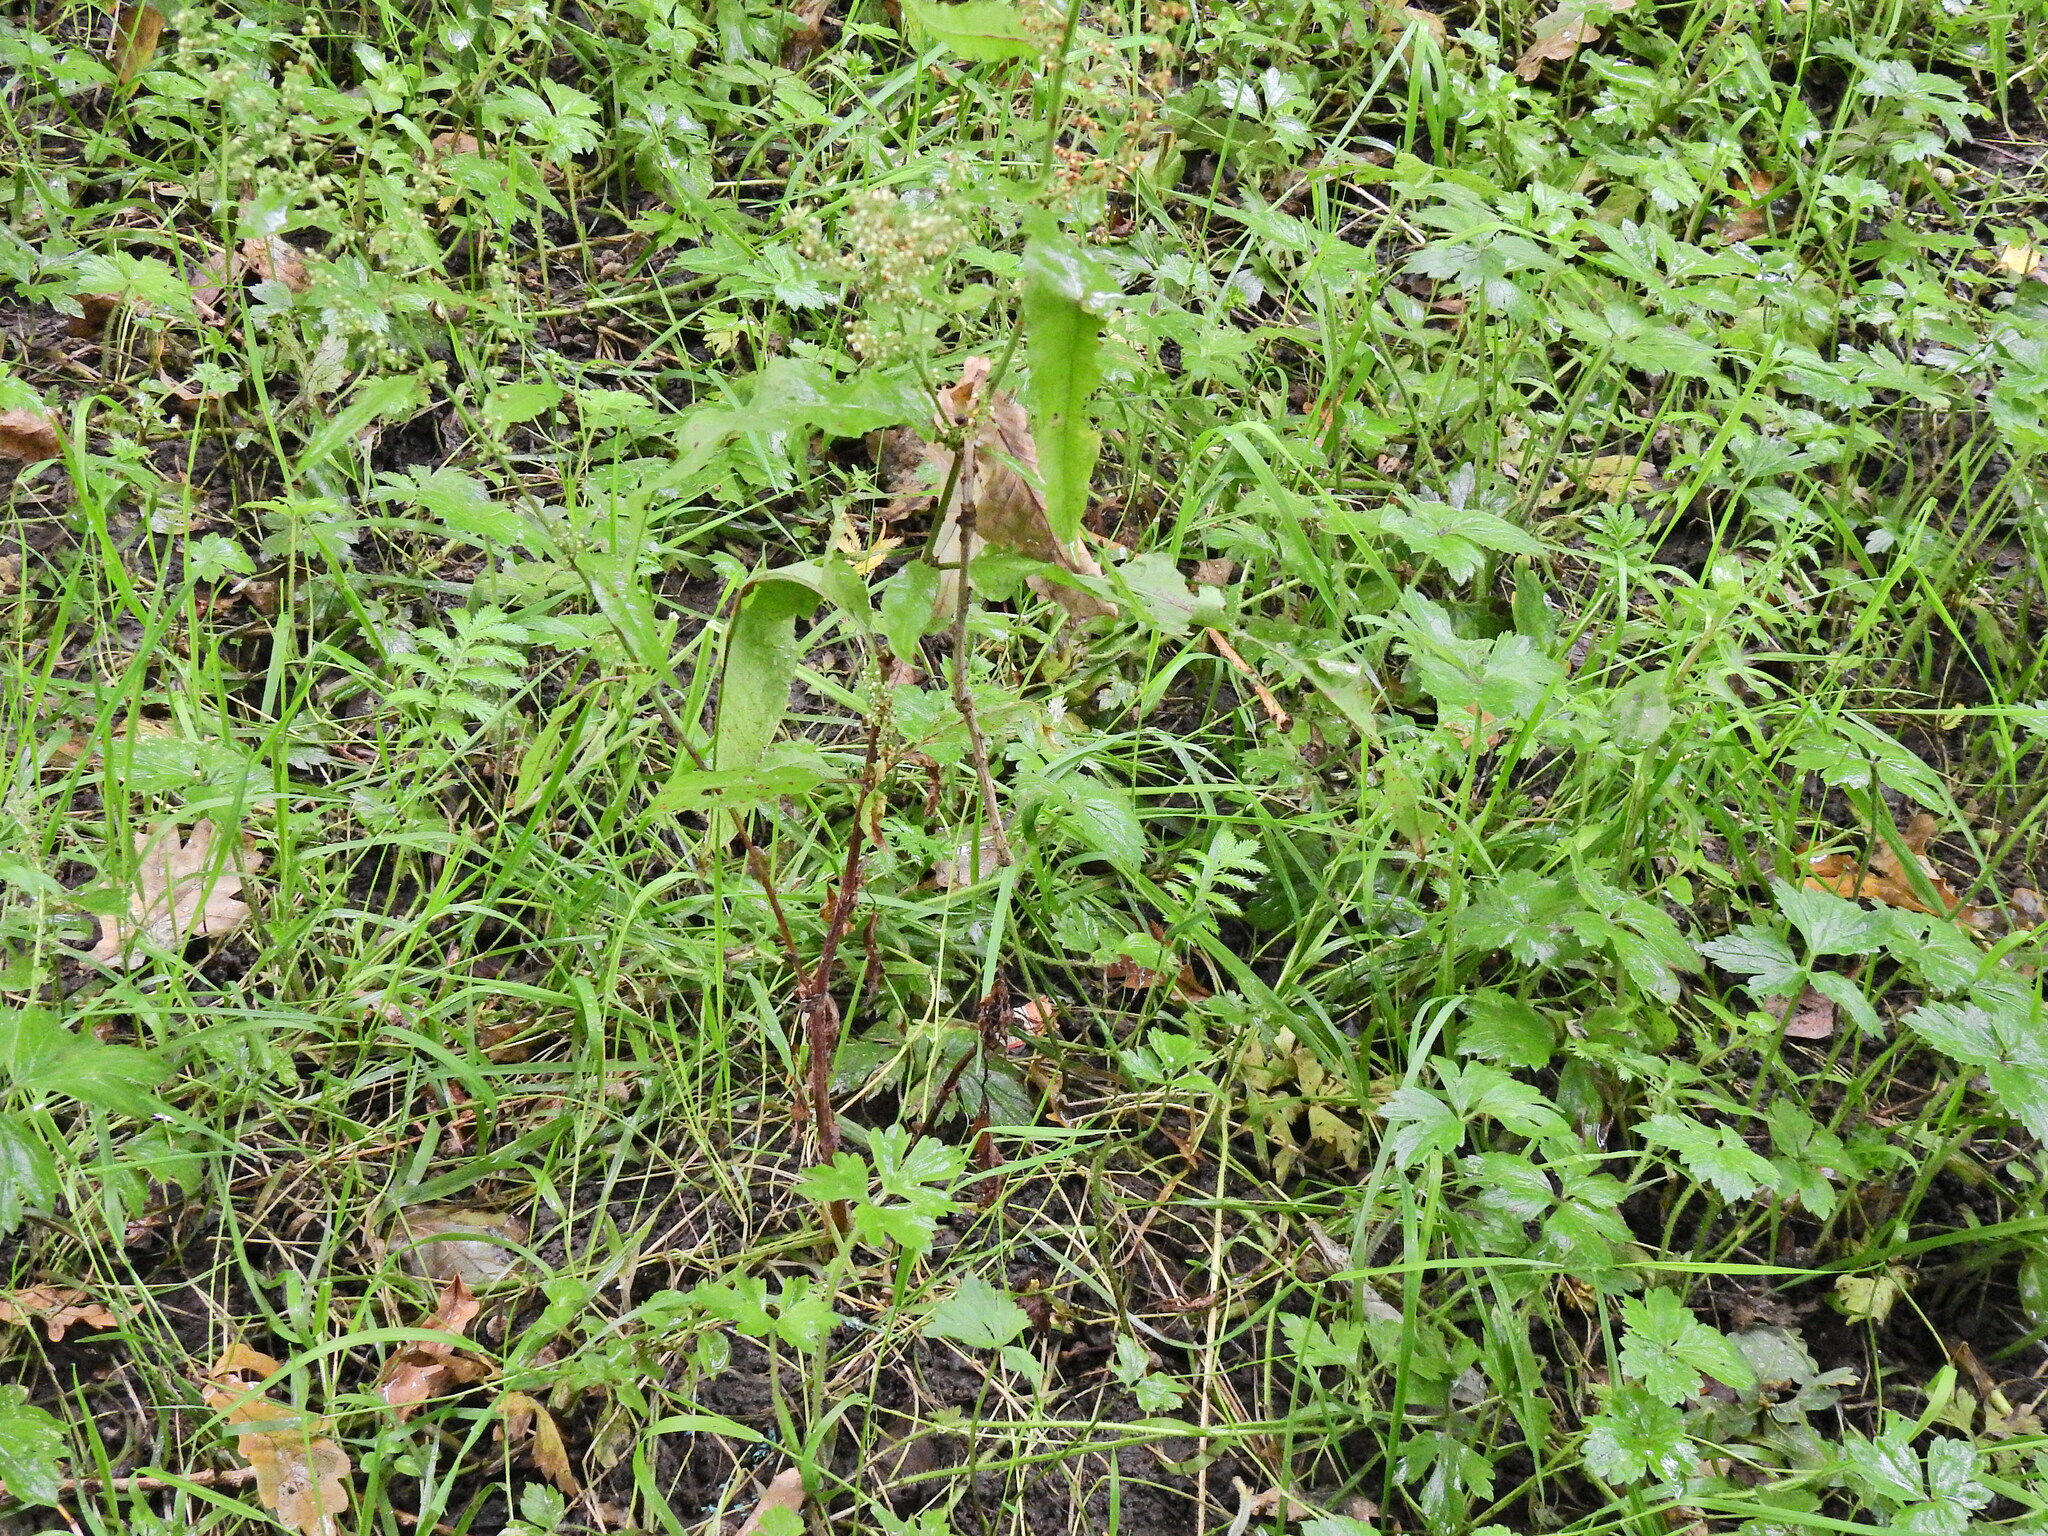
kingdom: Plantae
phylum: Tracheophyta
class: Magnoliopsida
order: Caryophyllales
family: Polygonaceae
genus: Rumex
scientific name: Rumex sanguineus
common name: Wood dock
